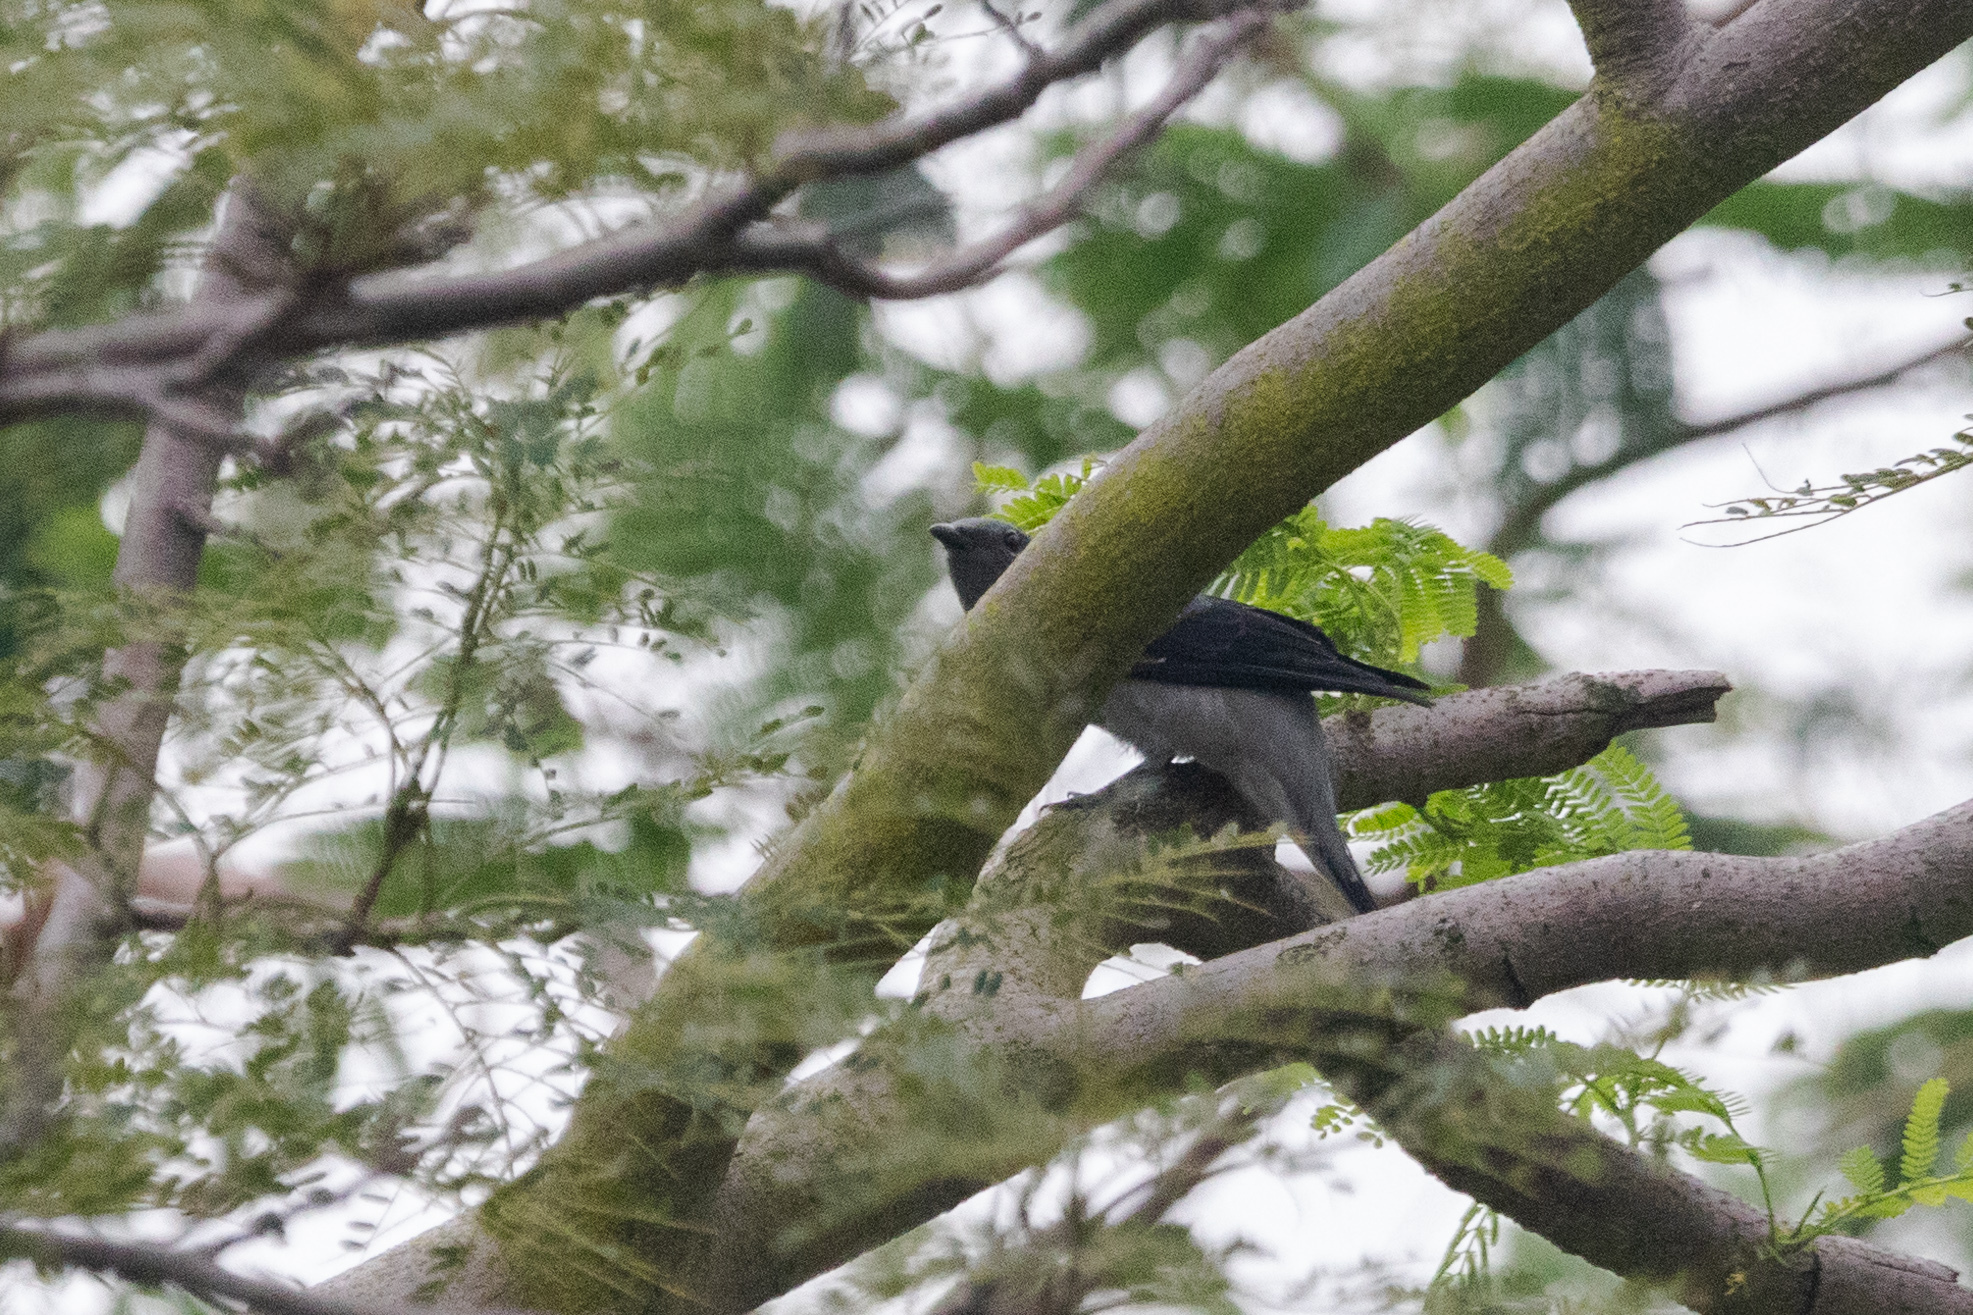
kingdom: Animalia
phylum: Chordata
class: Aves
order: Passeriformes
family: Campephagidae
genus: Coracina
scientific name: Coracina melaschistos
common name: Black-winged cuckooshrike
